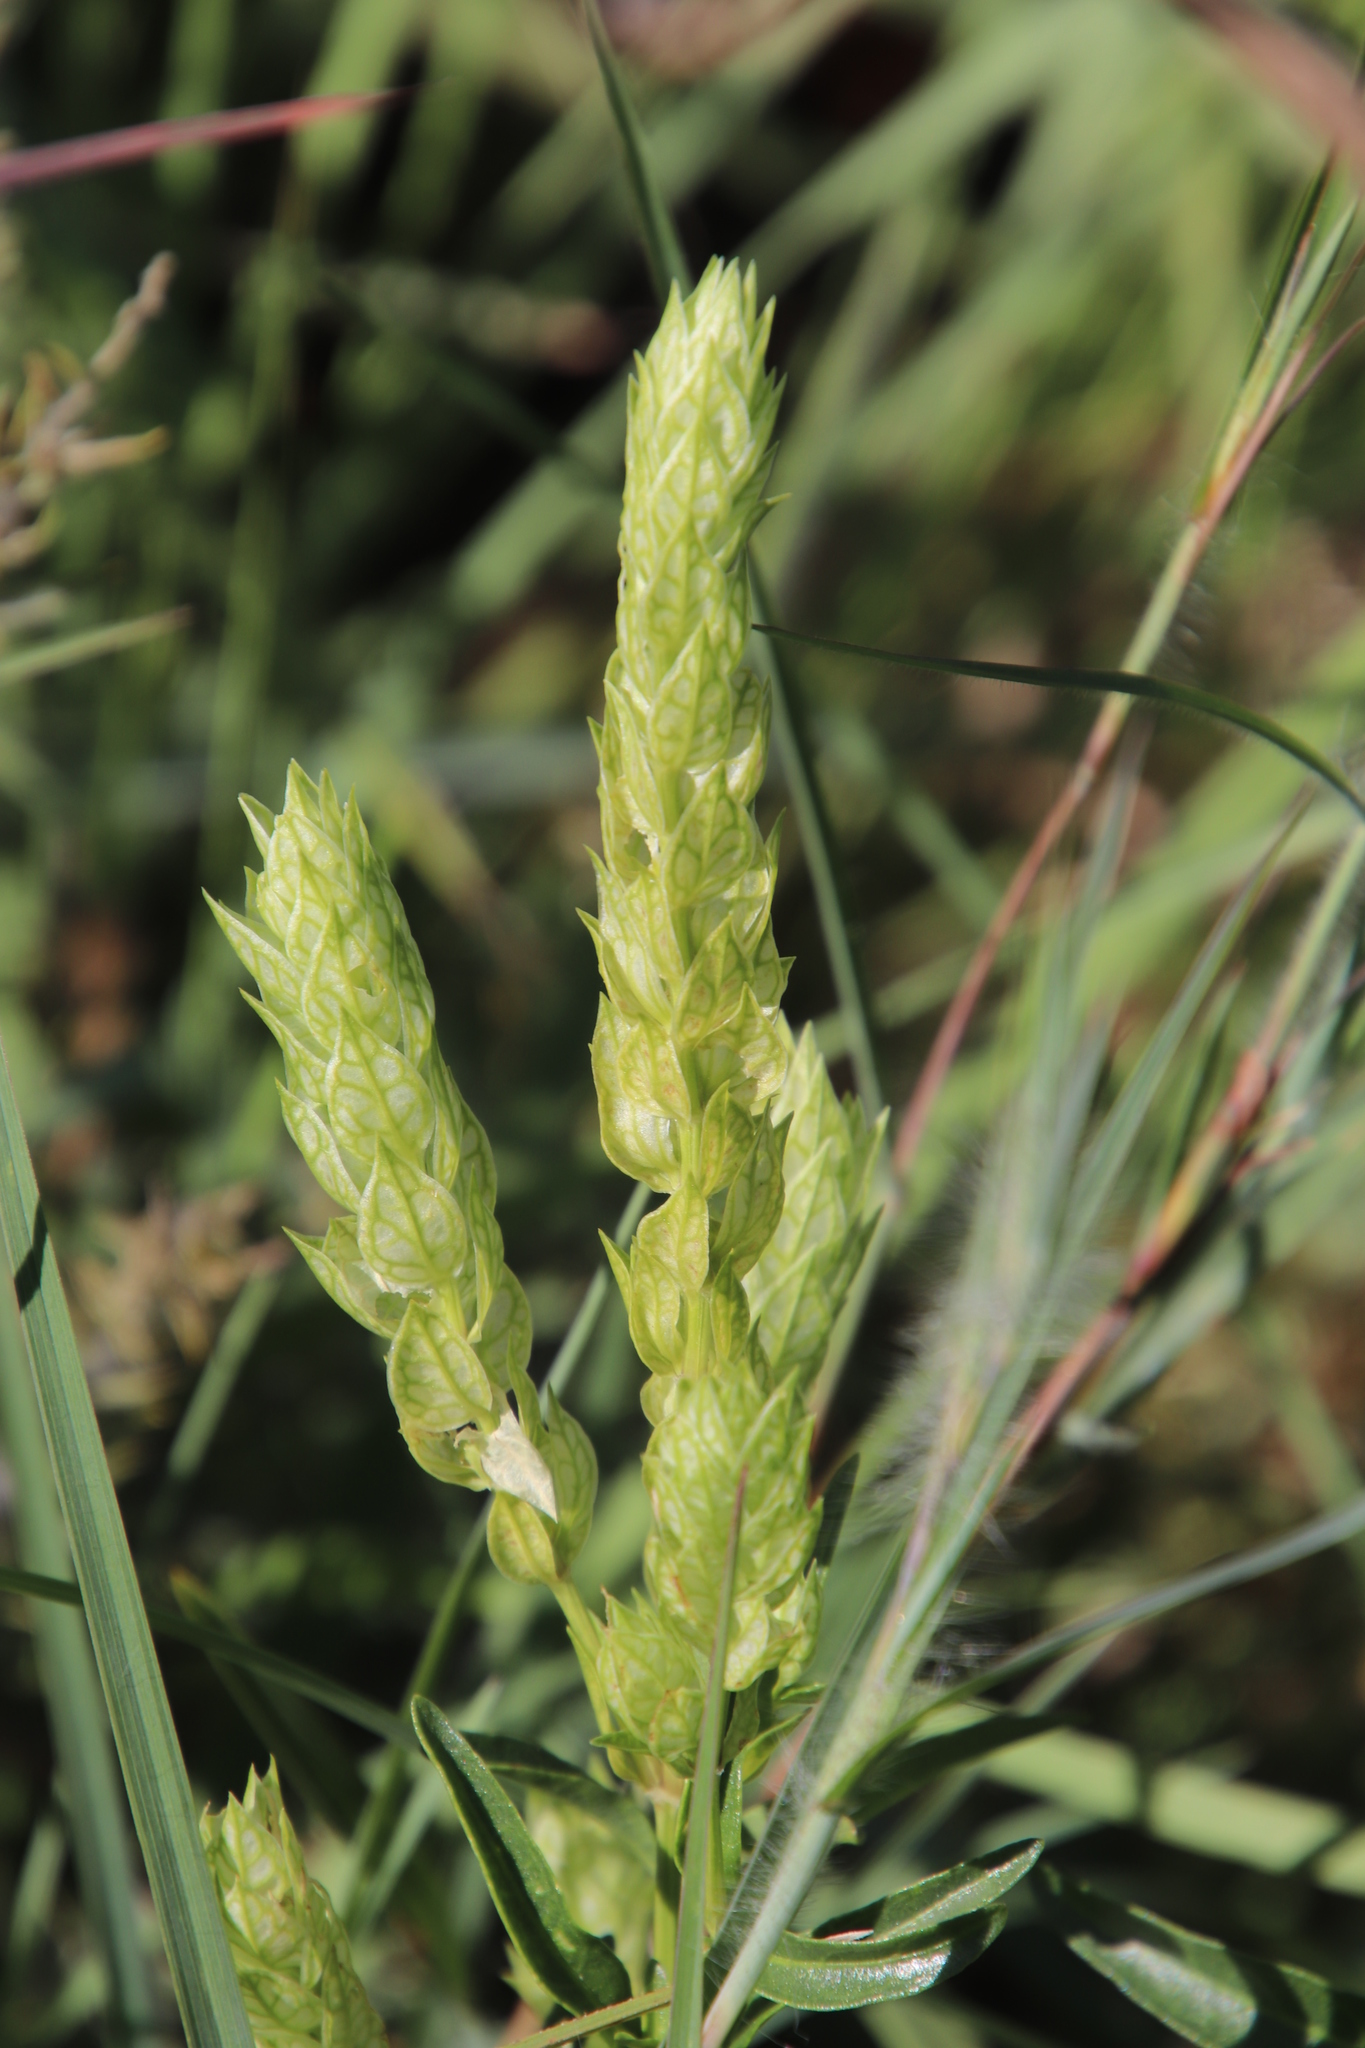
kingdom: Plantae
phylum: Tracheophyta
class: Magnoliopsida
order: Lamiales
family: Acanthaceae
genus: Justicia
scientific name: Justicia betonica
